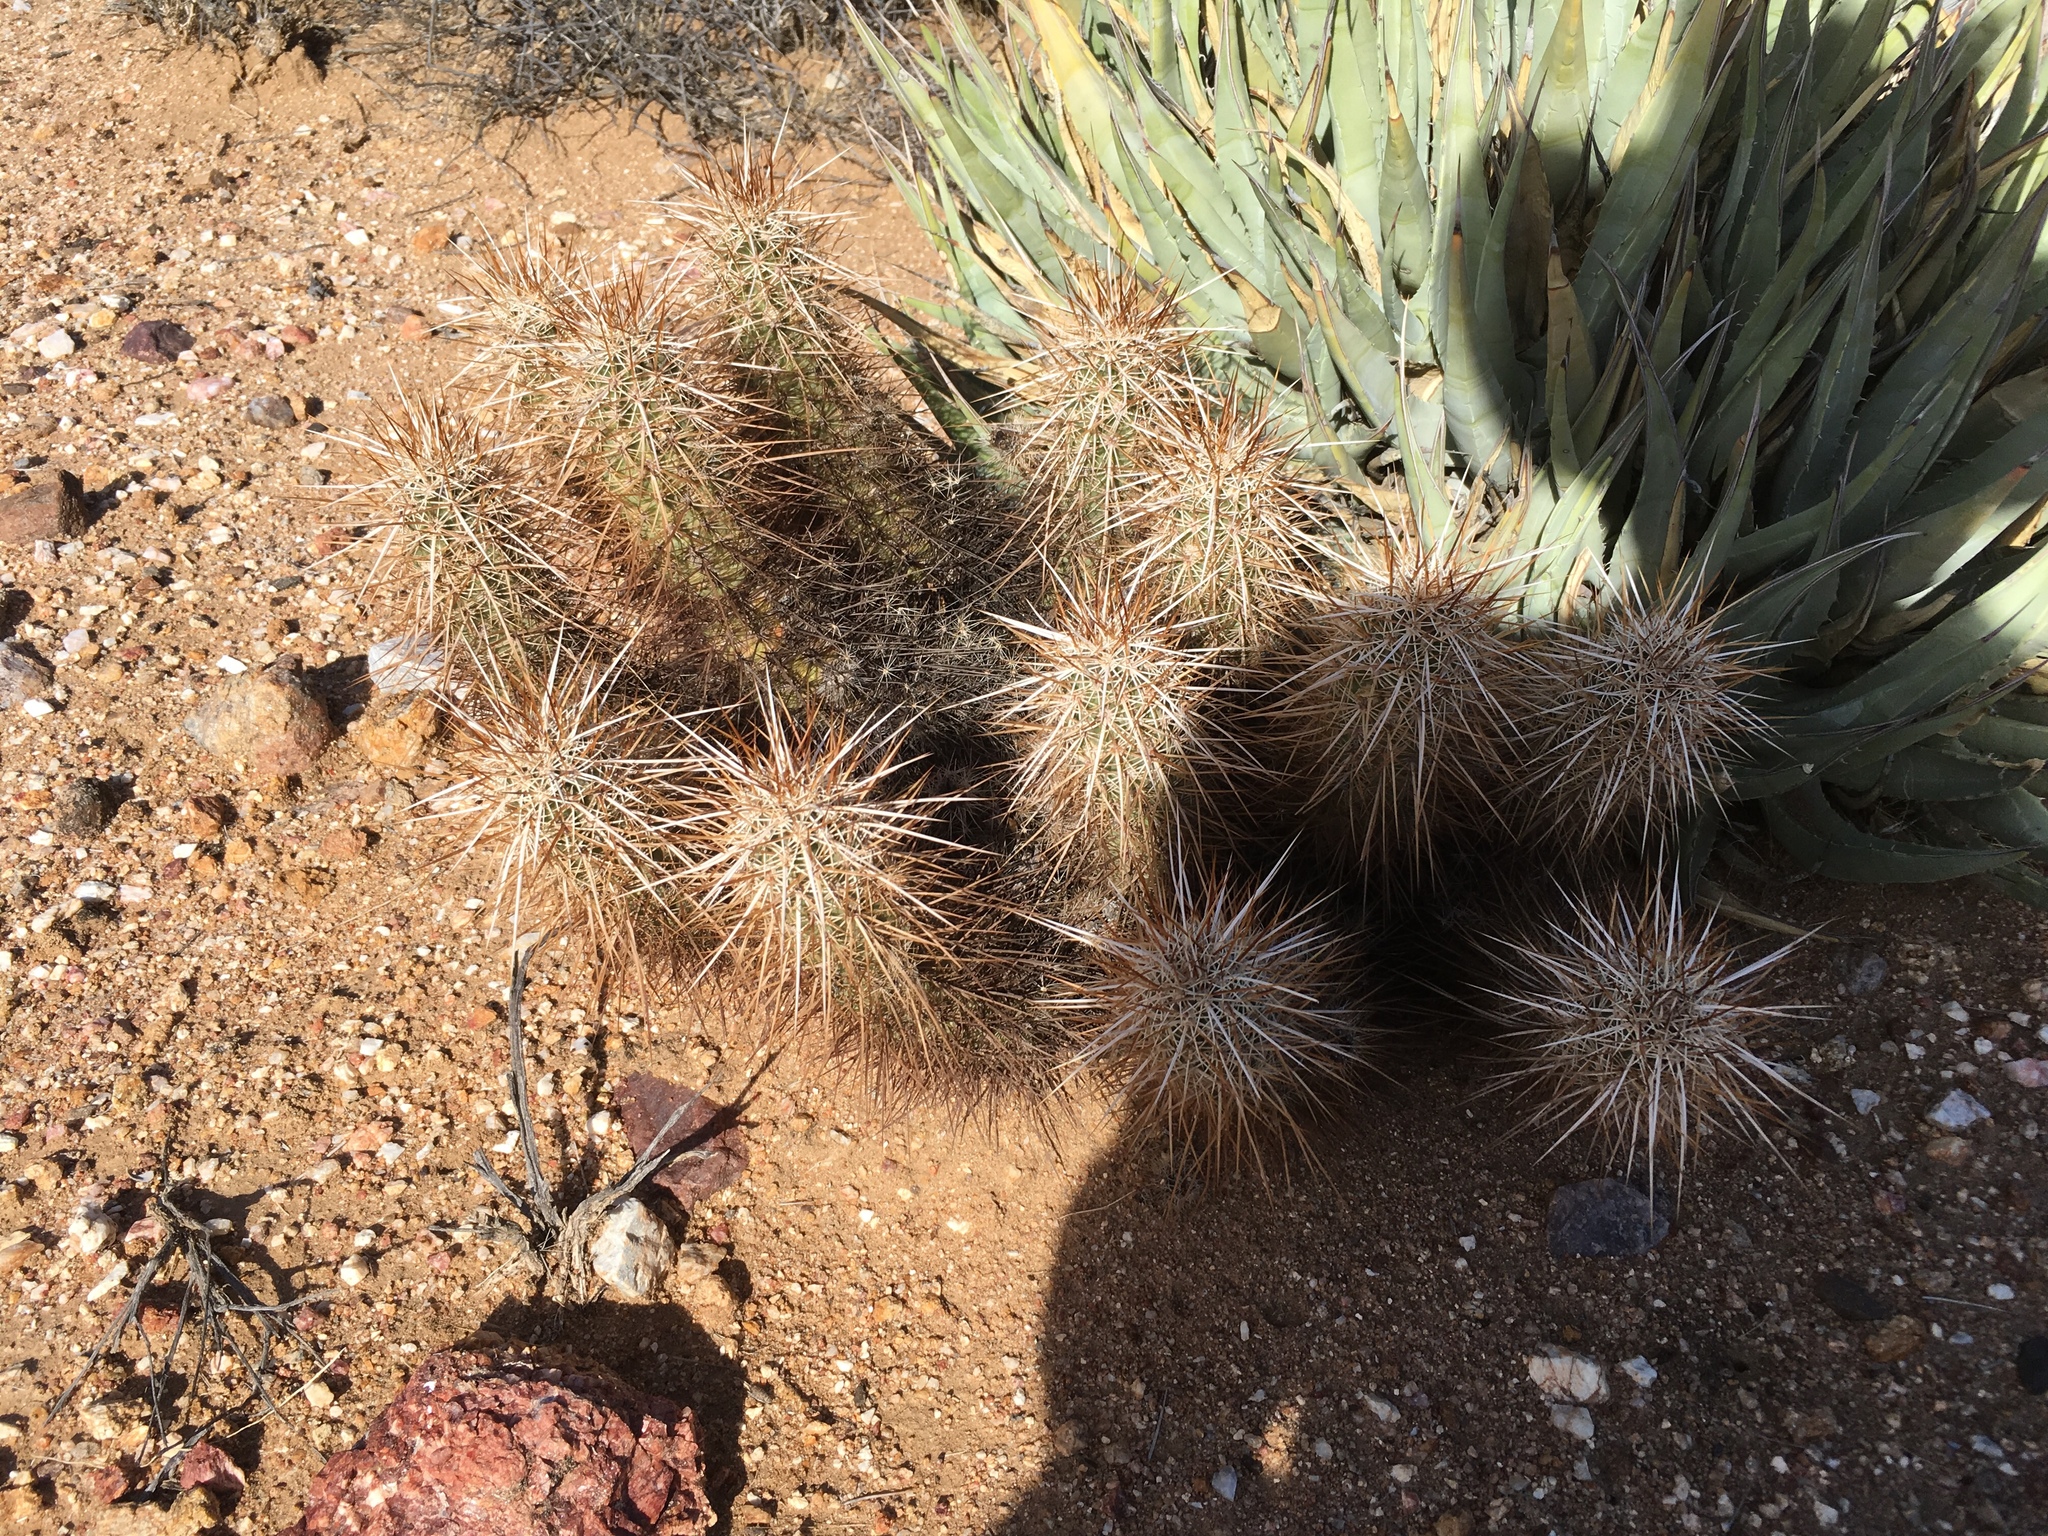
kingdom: Plantae
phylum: Tracheophyta
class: Magnoliopsida
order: Caryophyllales
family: Cactaceae
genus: Echinocereus
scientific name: Echinocereus engelmannii
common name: Engelmann's hedgehog cactus
